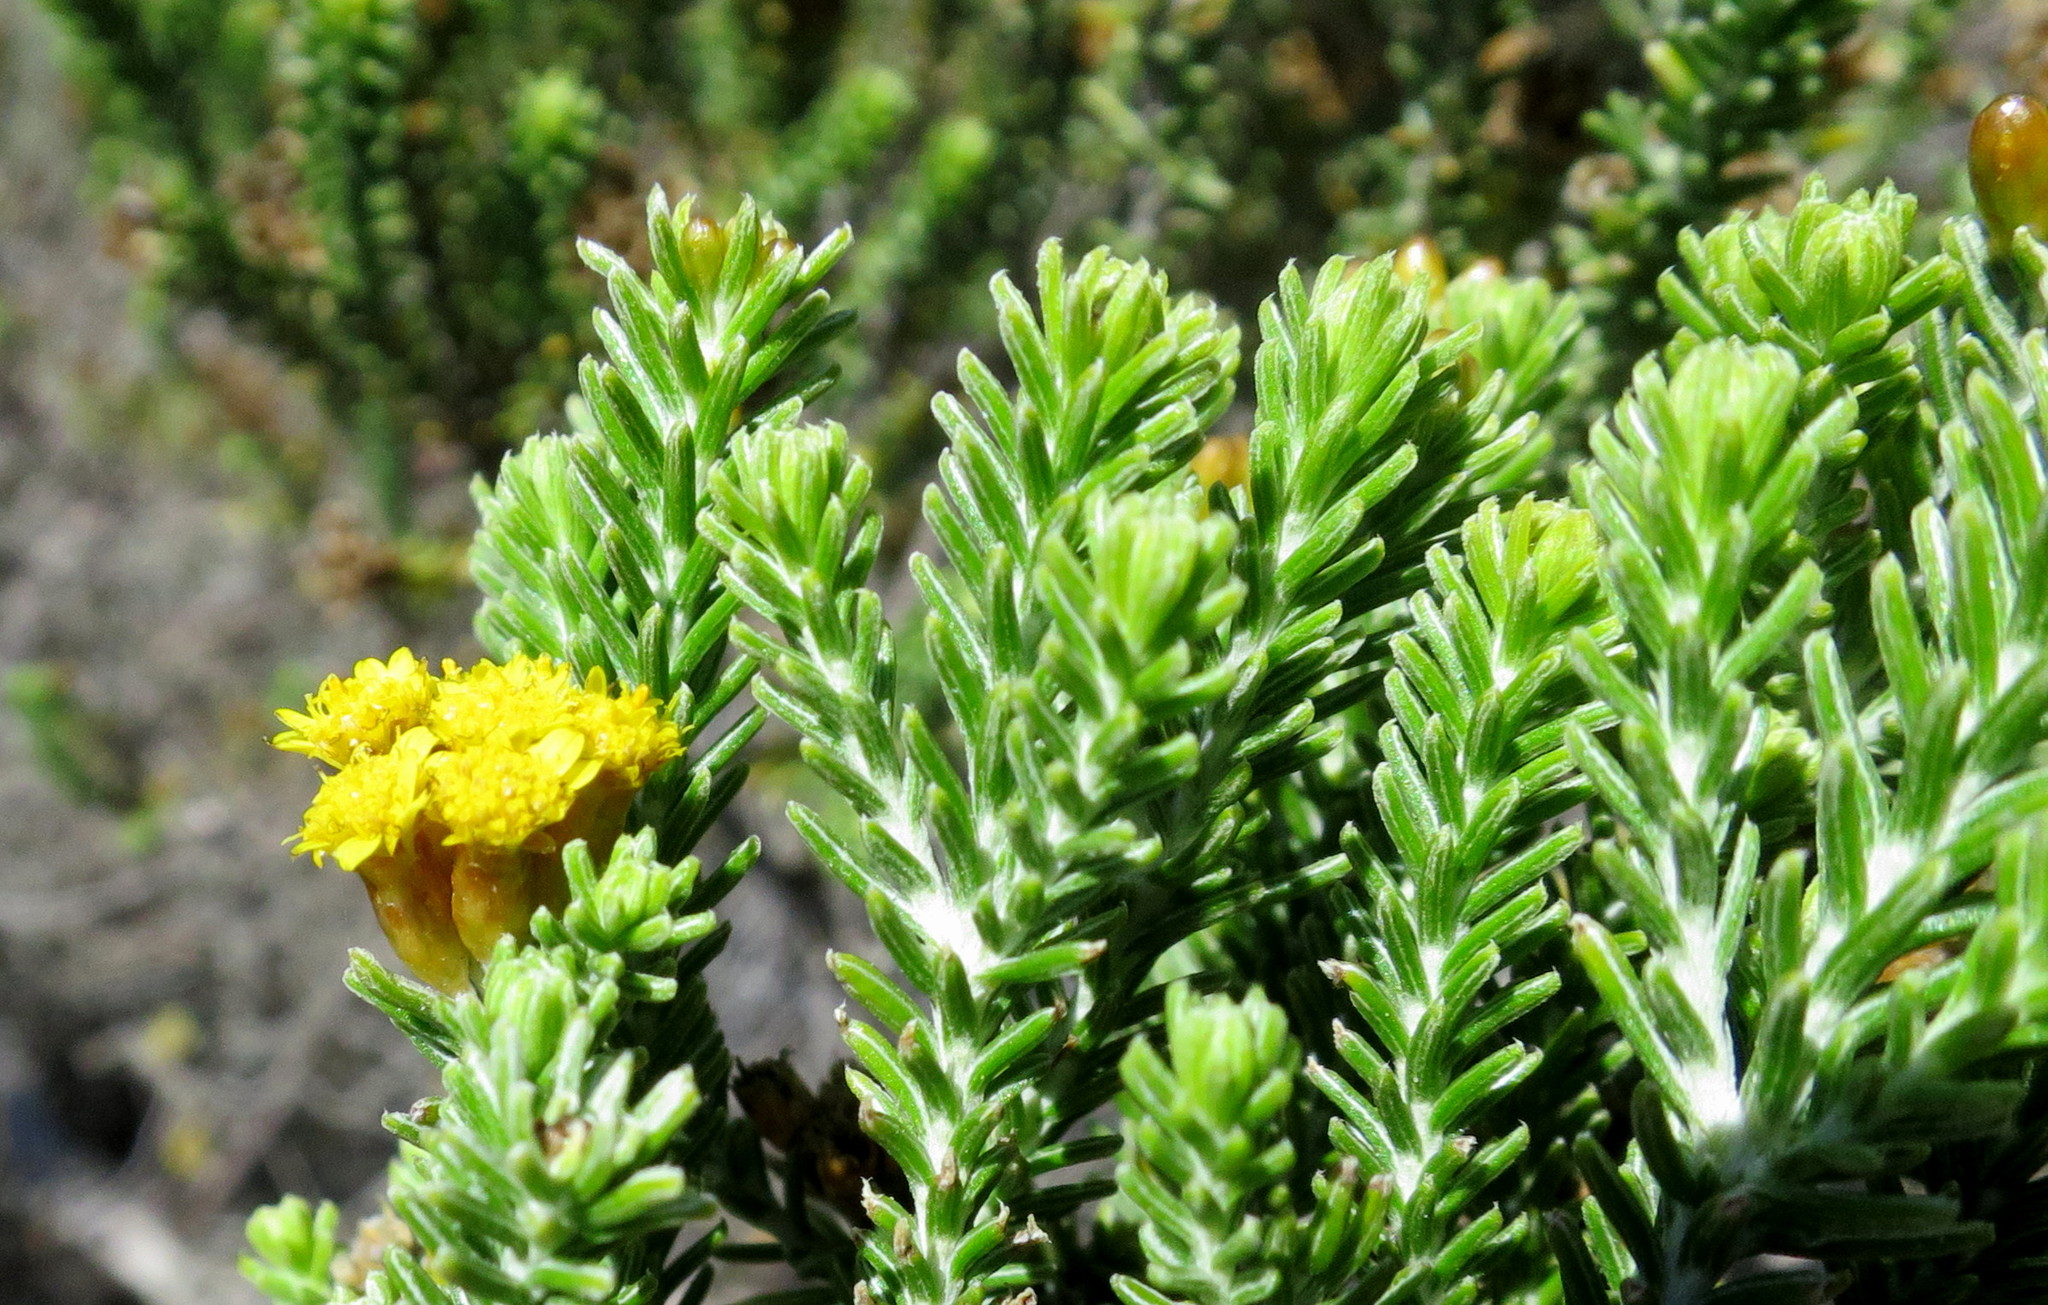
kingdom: Plantae
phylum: Tracheophyta
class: Magnoliopsida
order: Asterales
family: Asteraceae
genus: Oedera
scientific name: Oedera genistifolia
